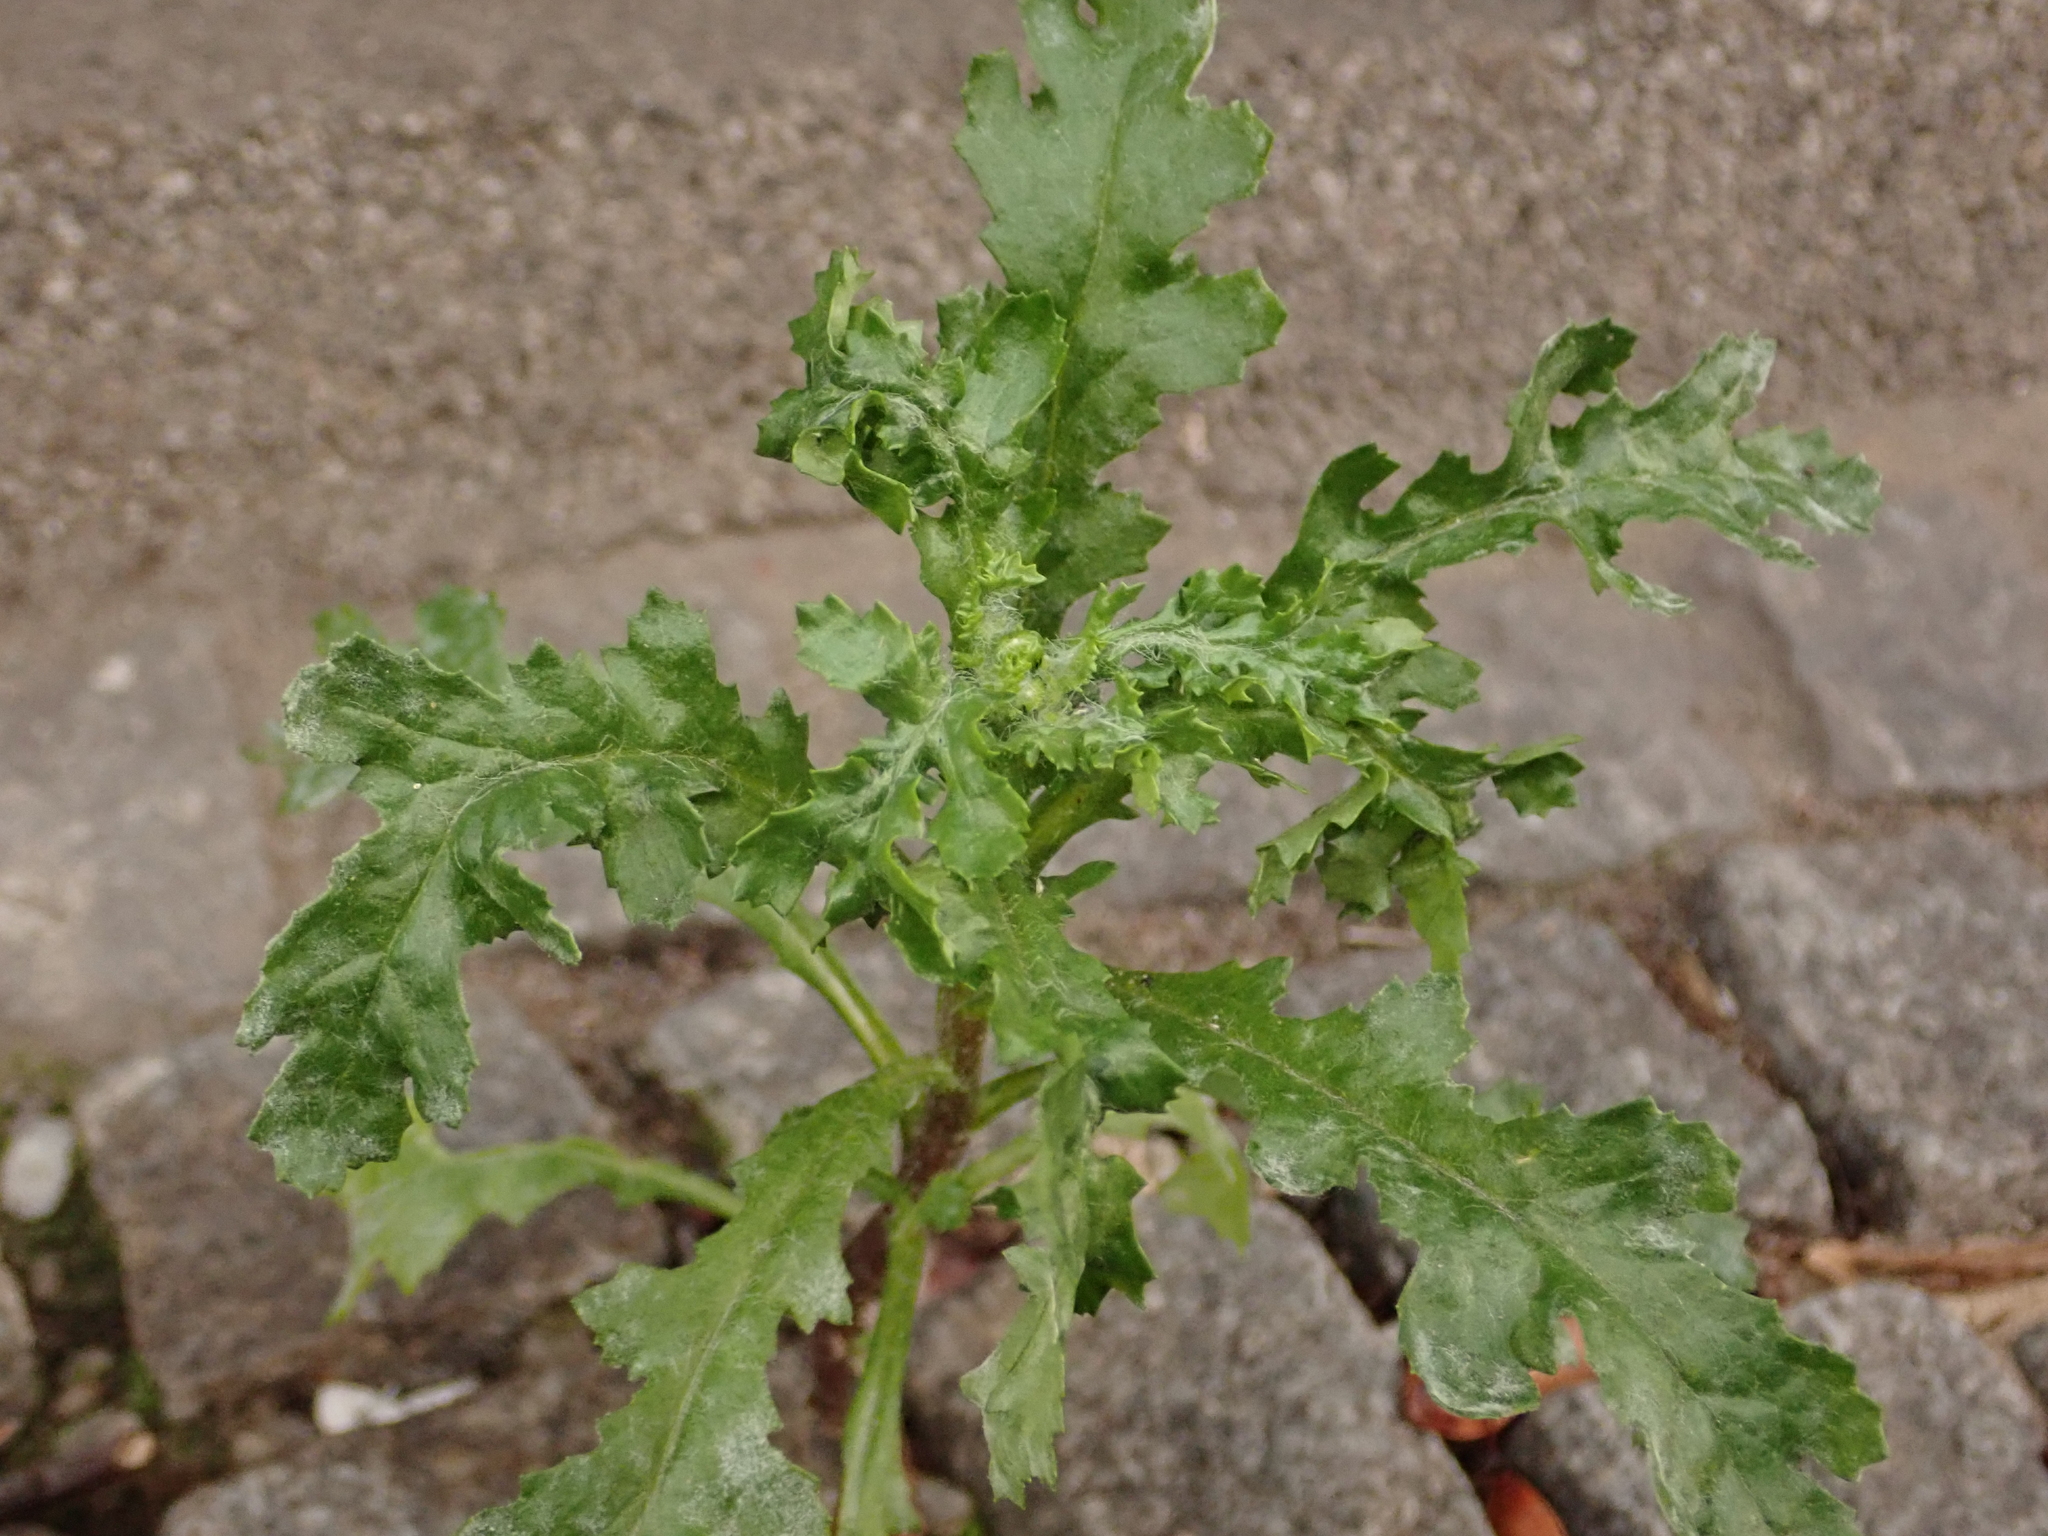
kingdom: Plantae
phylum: Tracheophyta
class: Magnoliopsida
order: Asterales
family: Asteraceae
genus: Senecio
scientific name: Senecio vulgaris
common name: Old-man-in-the-spring
